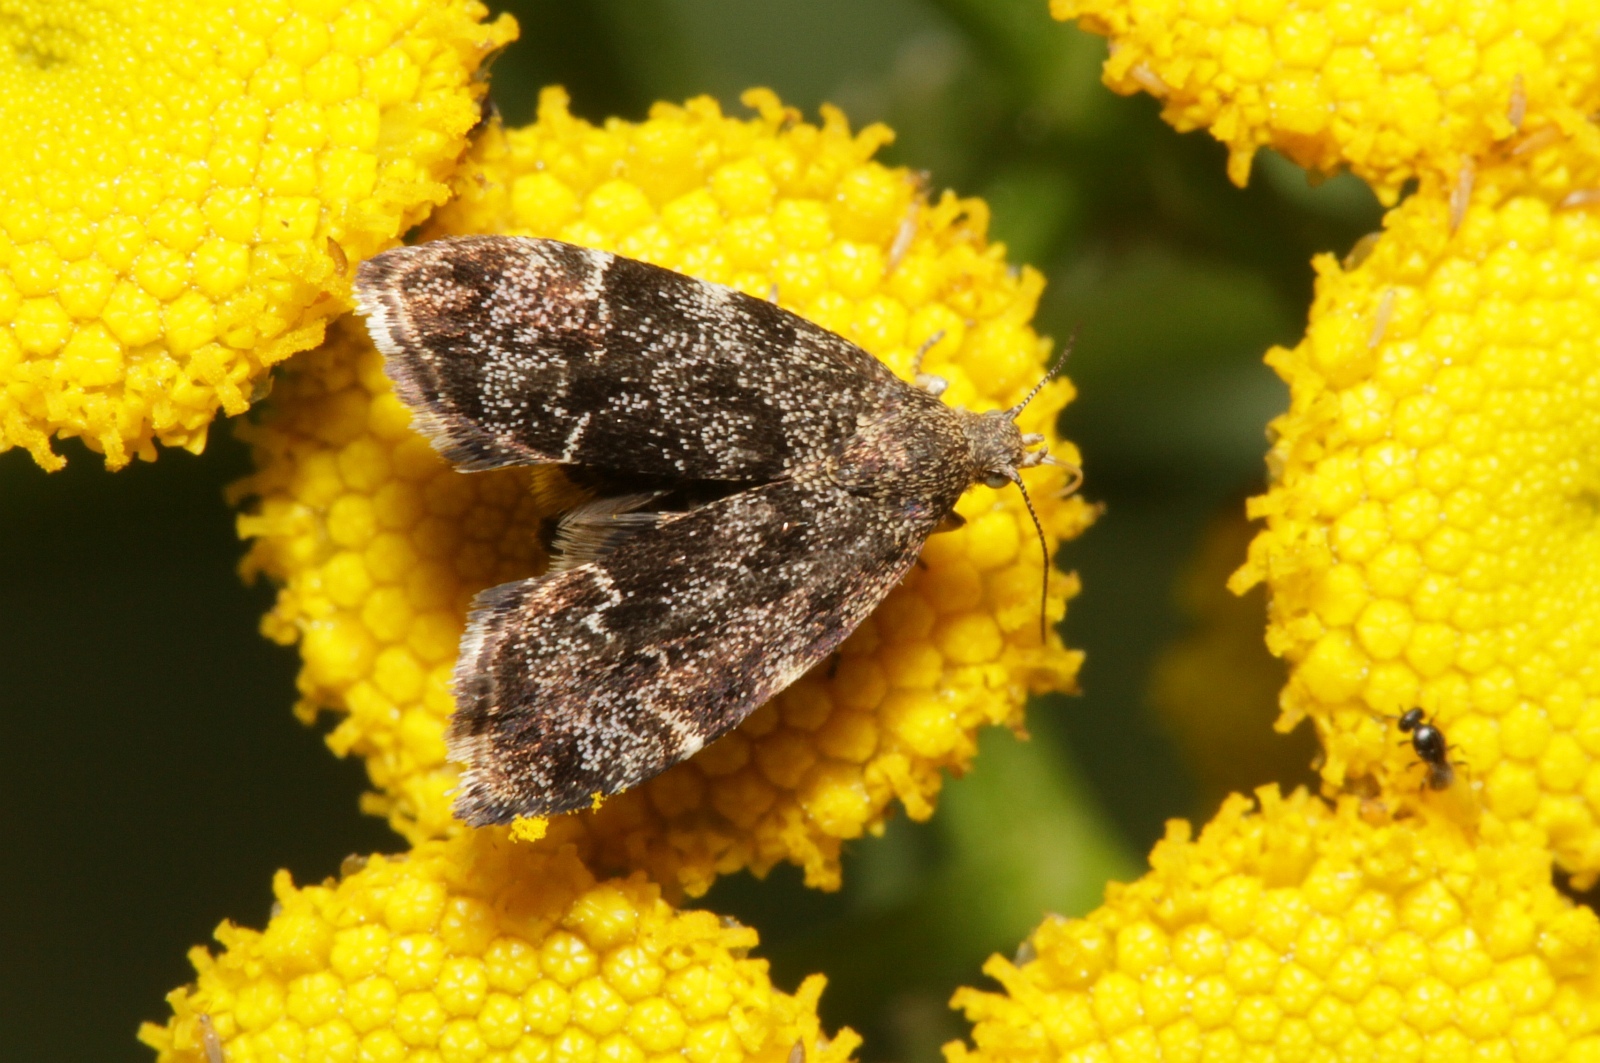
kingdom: Animalia
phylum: Arthropoda
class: Insecta
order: Lepidoptera
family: Choreutidae
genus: Anthophila
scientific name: Anthophila fabriciana
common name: Nettle-tap
